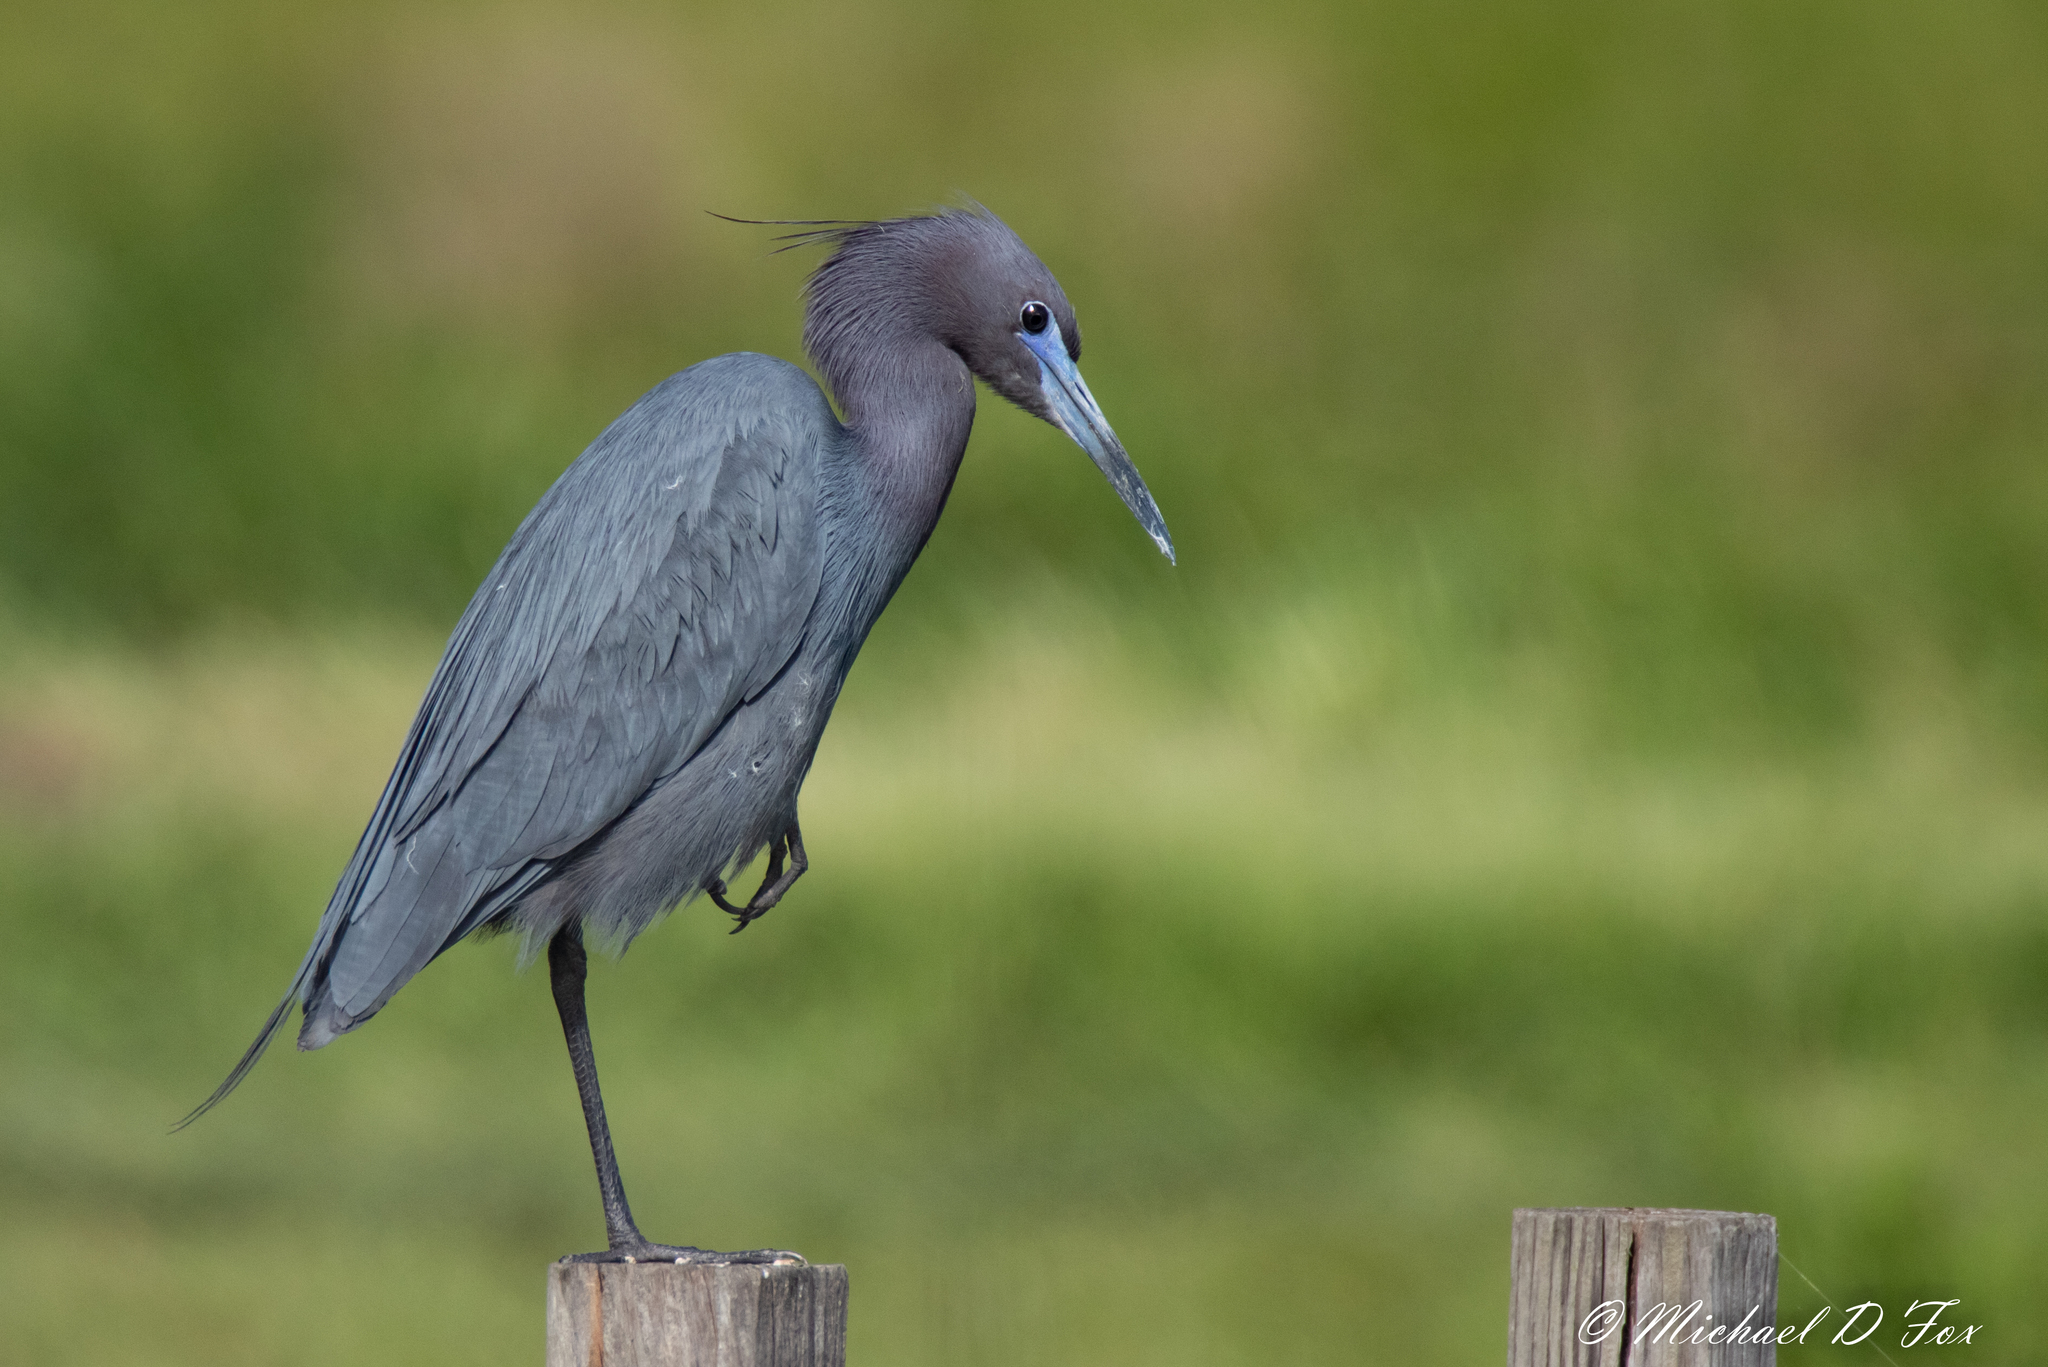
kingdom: Animalia
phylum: Chordata
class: Aves
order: Pelecaniformes
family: Ardeidae
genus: Egretta
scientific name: Egretta caerulea
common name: Little blue heron
